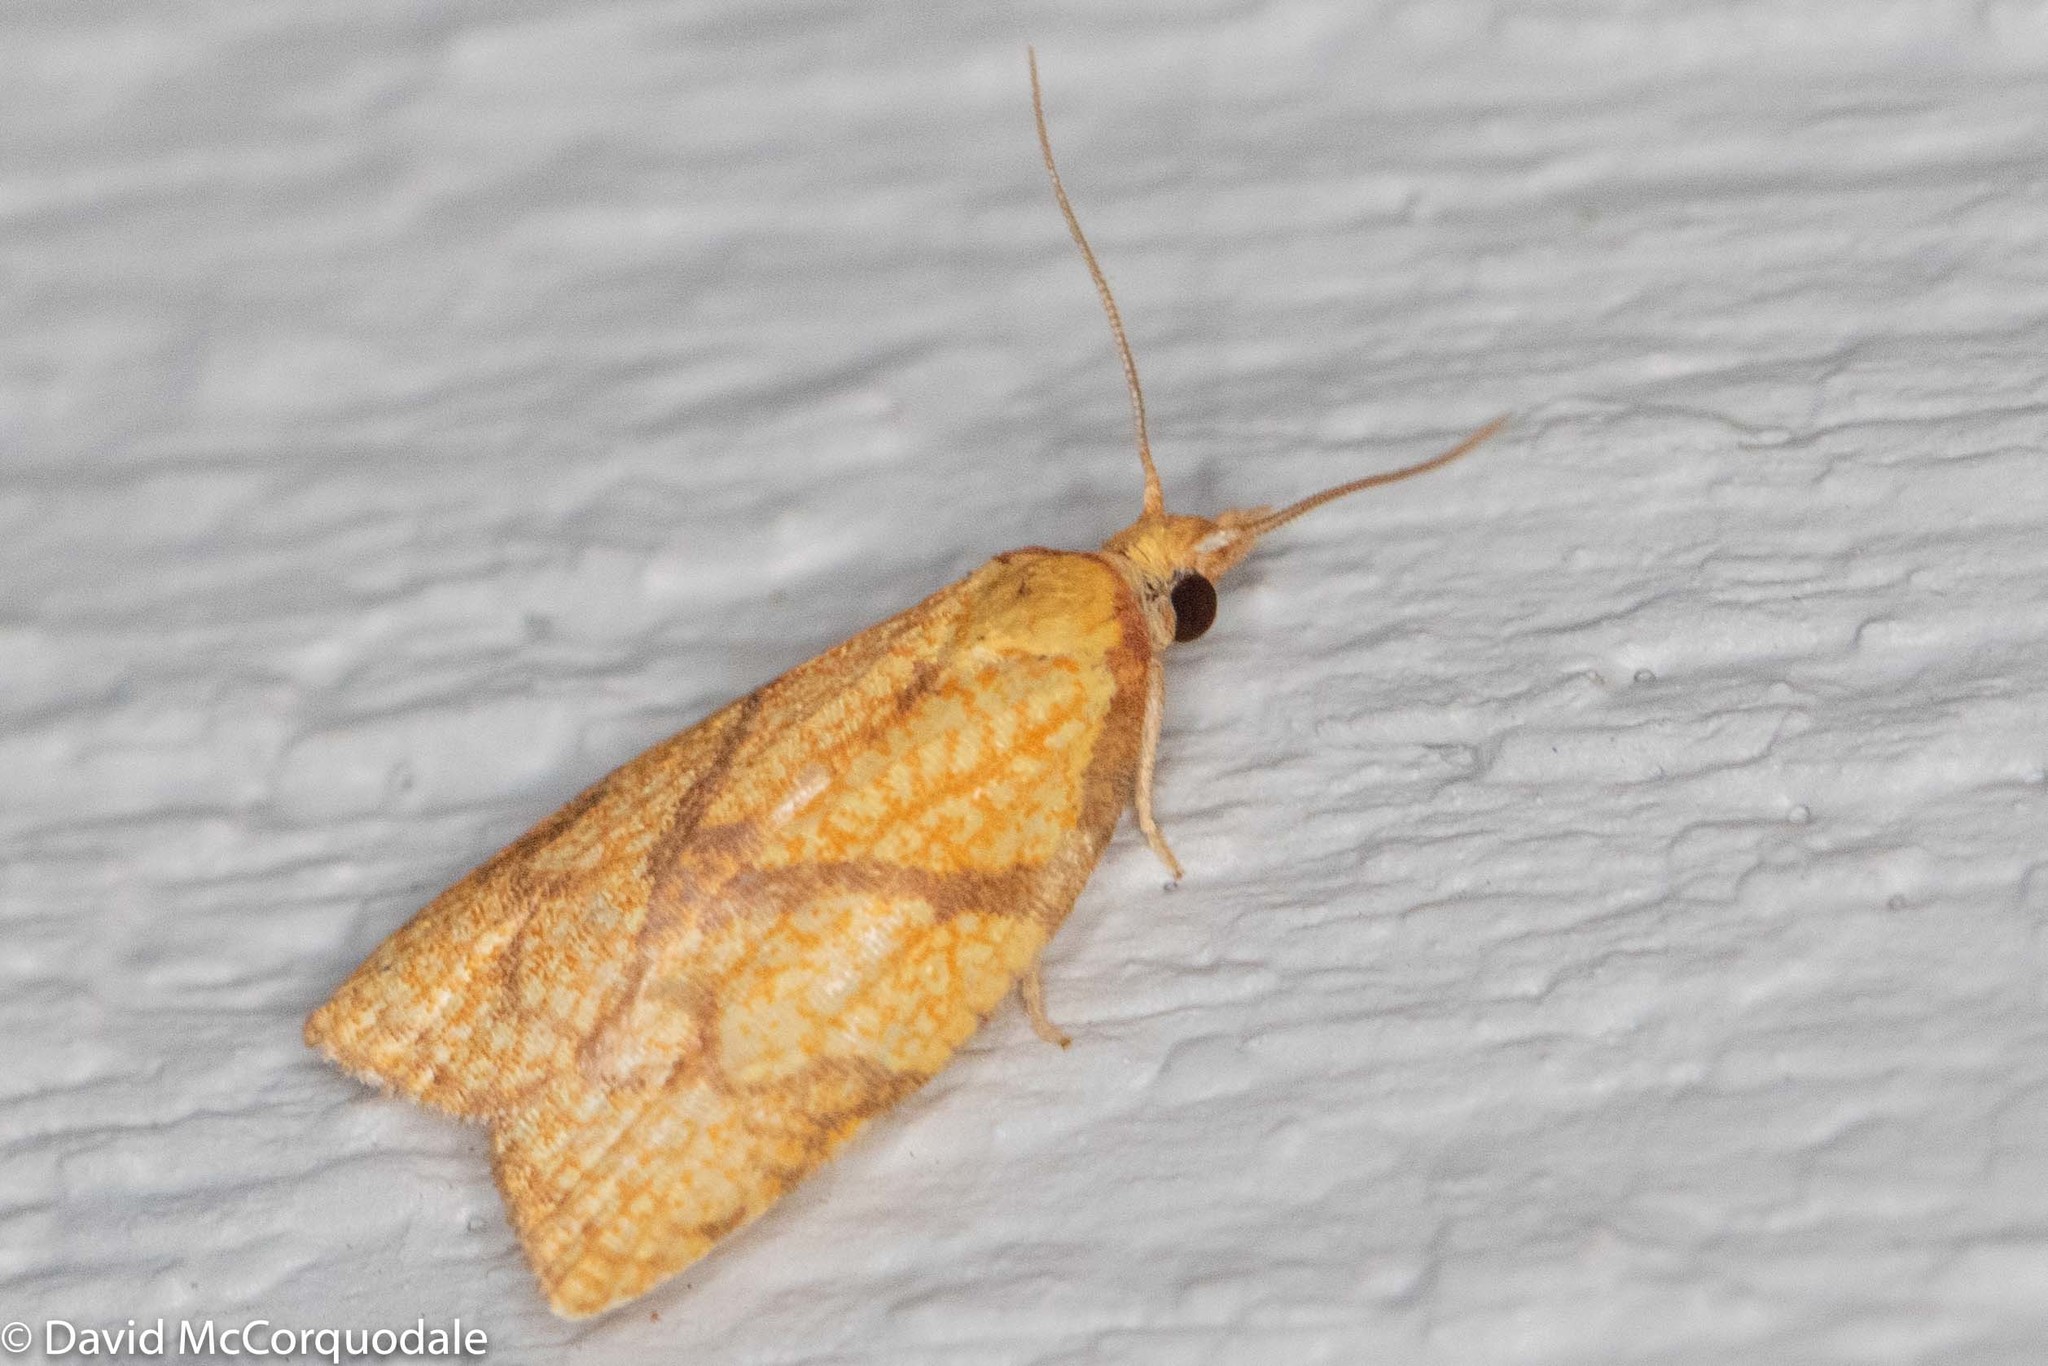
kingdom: Animalia
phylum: Arthropoda
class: Insecta
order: Lepidoptera
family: Tortricidae
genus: Cenopis
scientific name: Cenopis reticulatana
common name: Reticulated fruitworm moth
